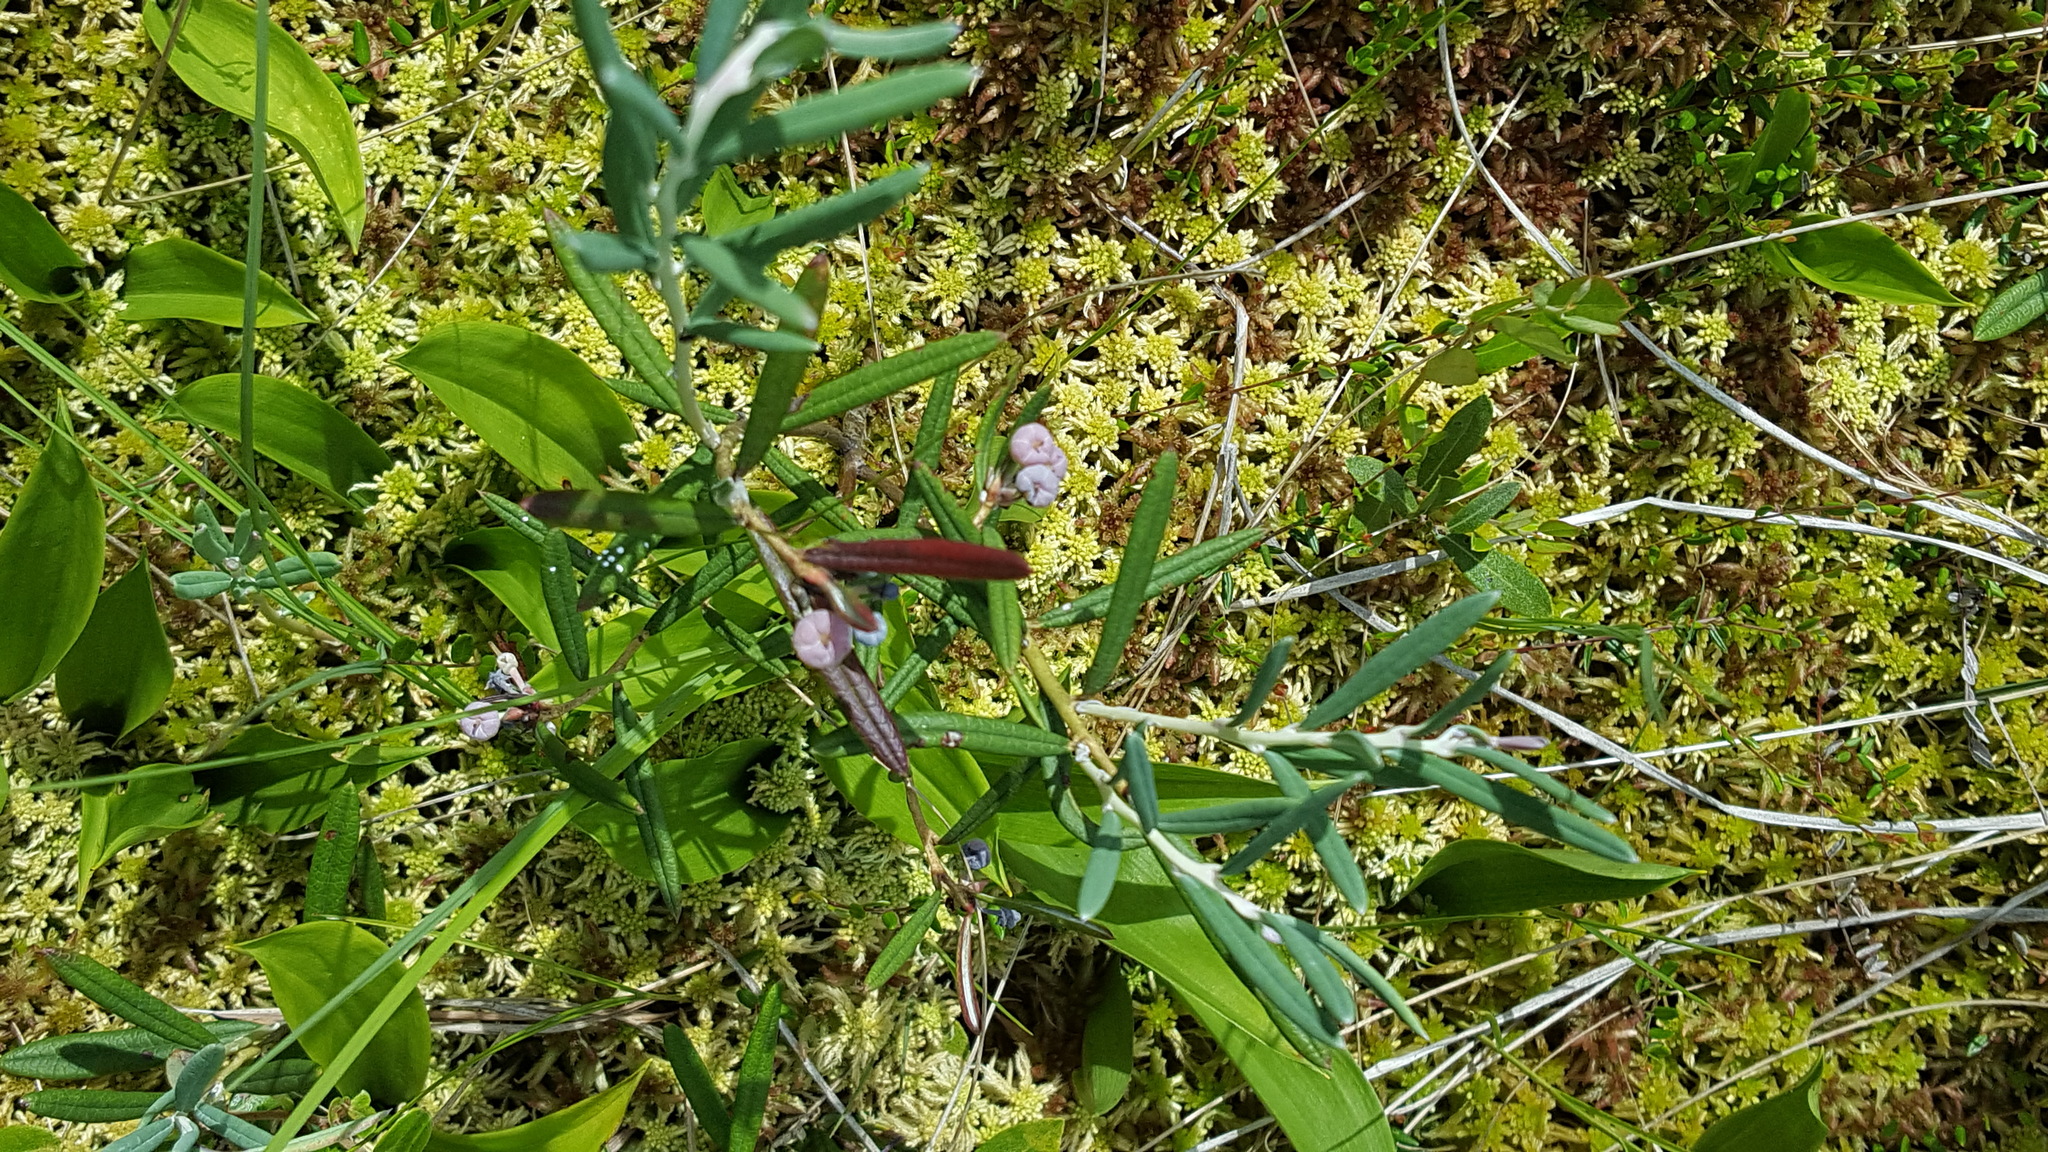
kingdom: Plantae
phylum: Tracheophyta
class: Magnoliopsida
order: Ericales
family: Ericaceae
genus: Andromeda
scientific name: Andromeda polifolia
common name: Bog-rosemary
